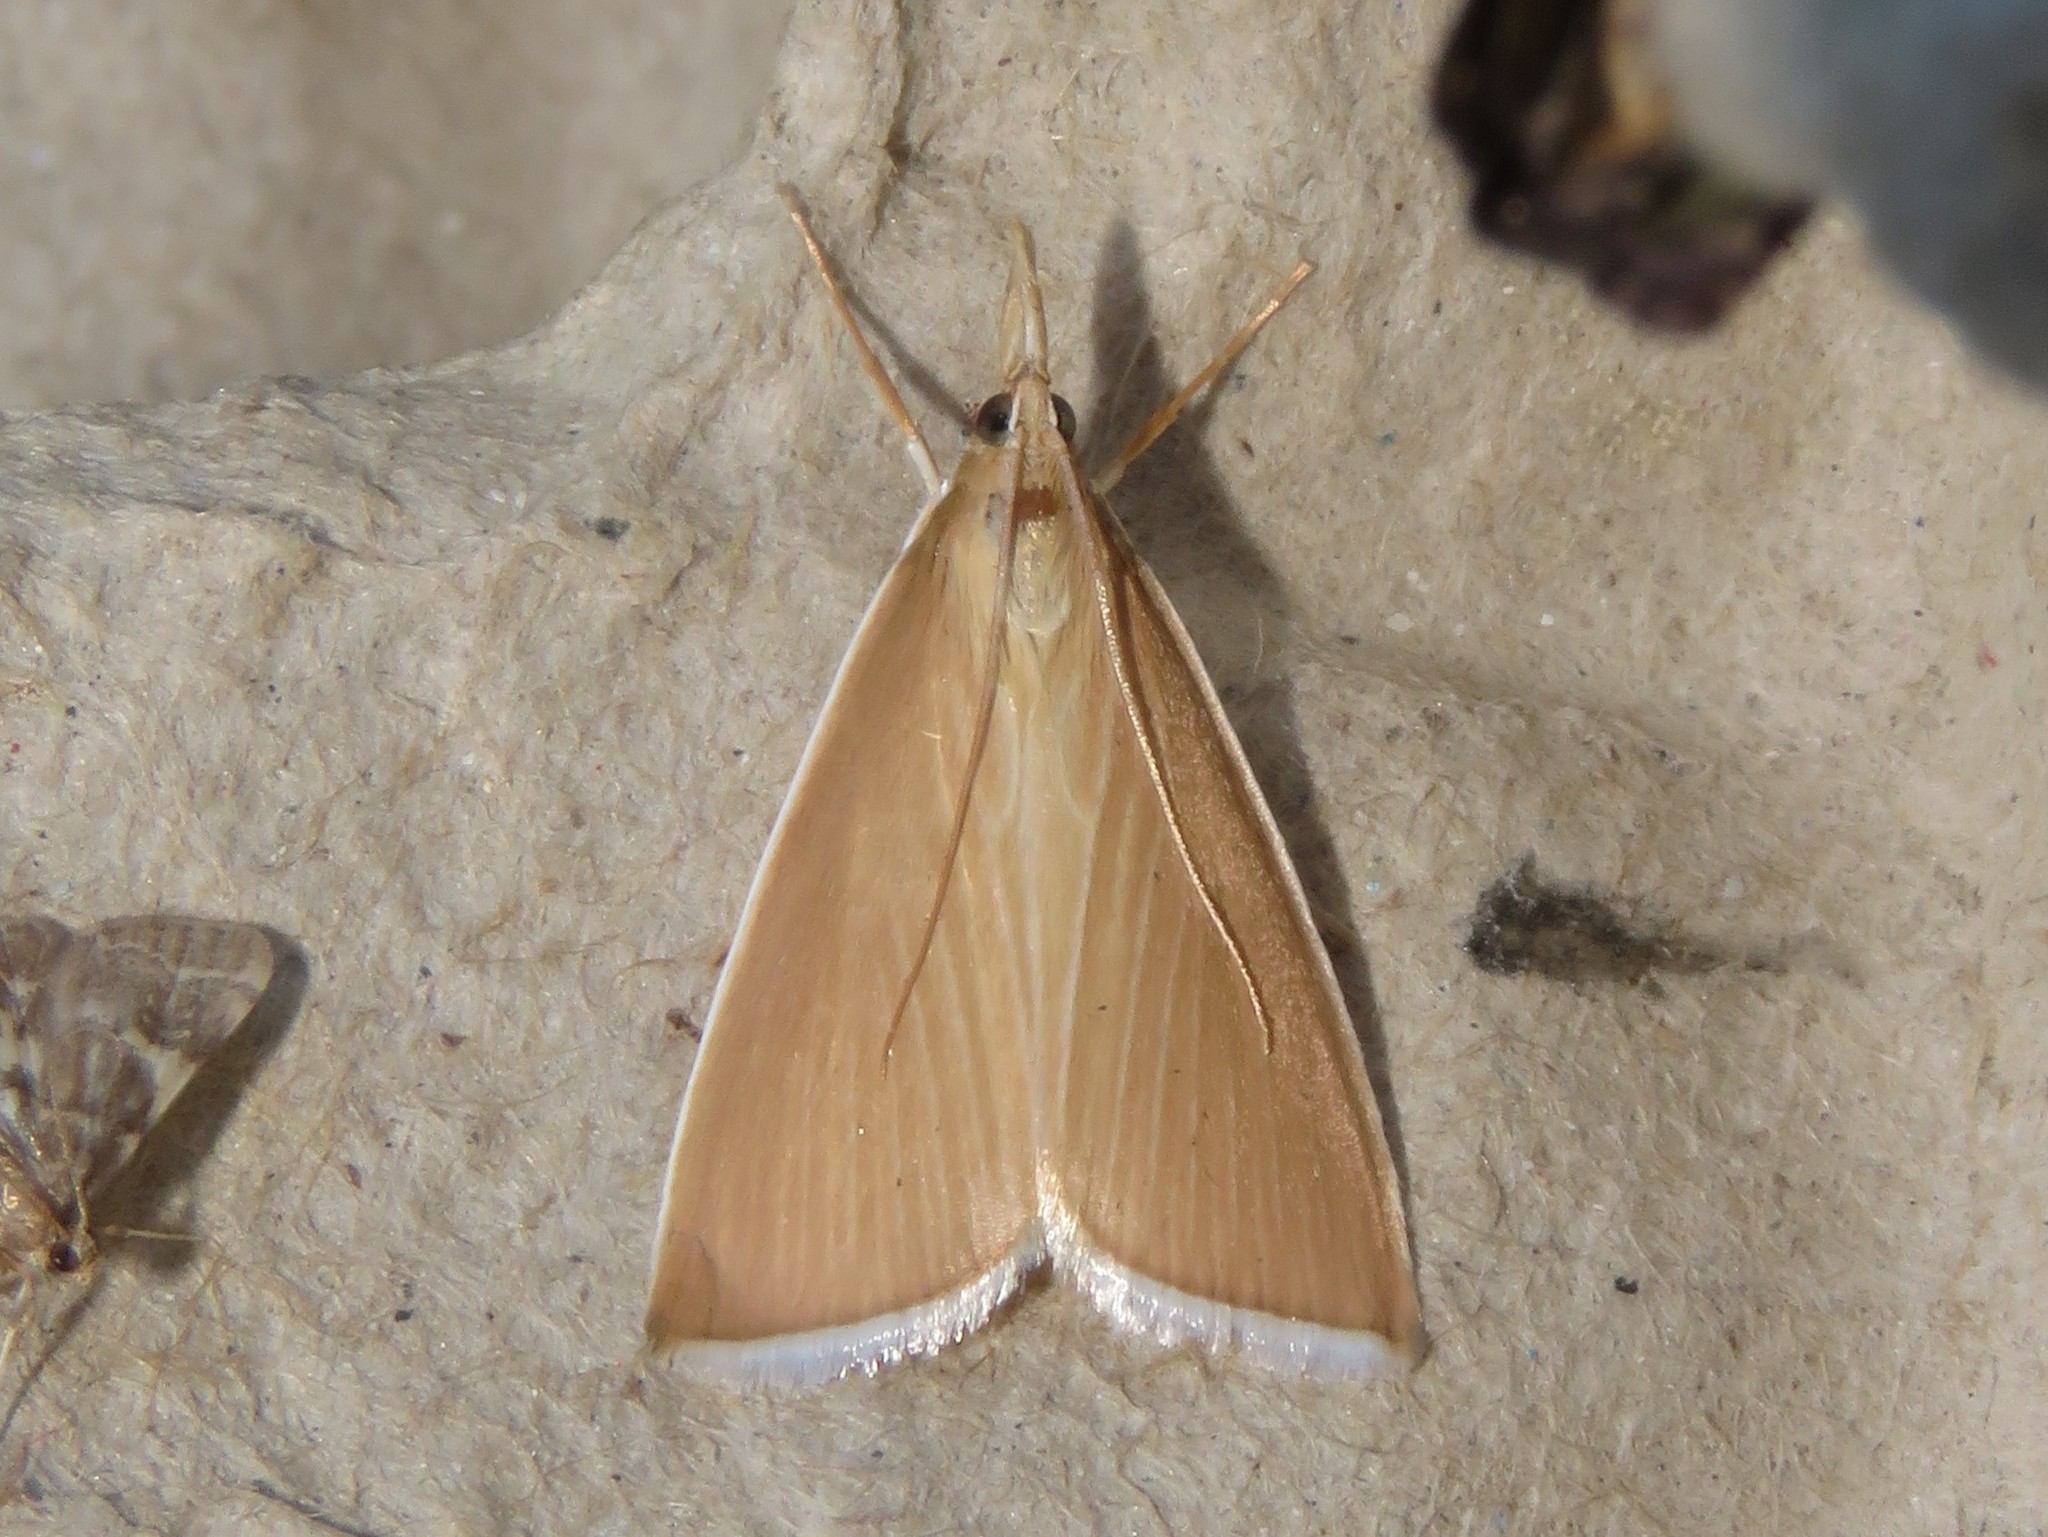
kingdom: Animalia
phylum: Arthropoda
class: Insecta
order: Lepidoptera
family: Crambidae
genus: Calamochrous
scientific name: Calamochrous Sclerocona acutella
